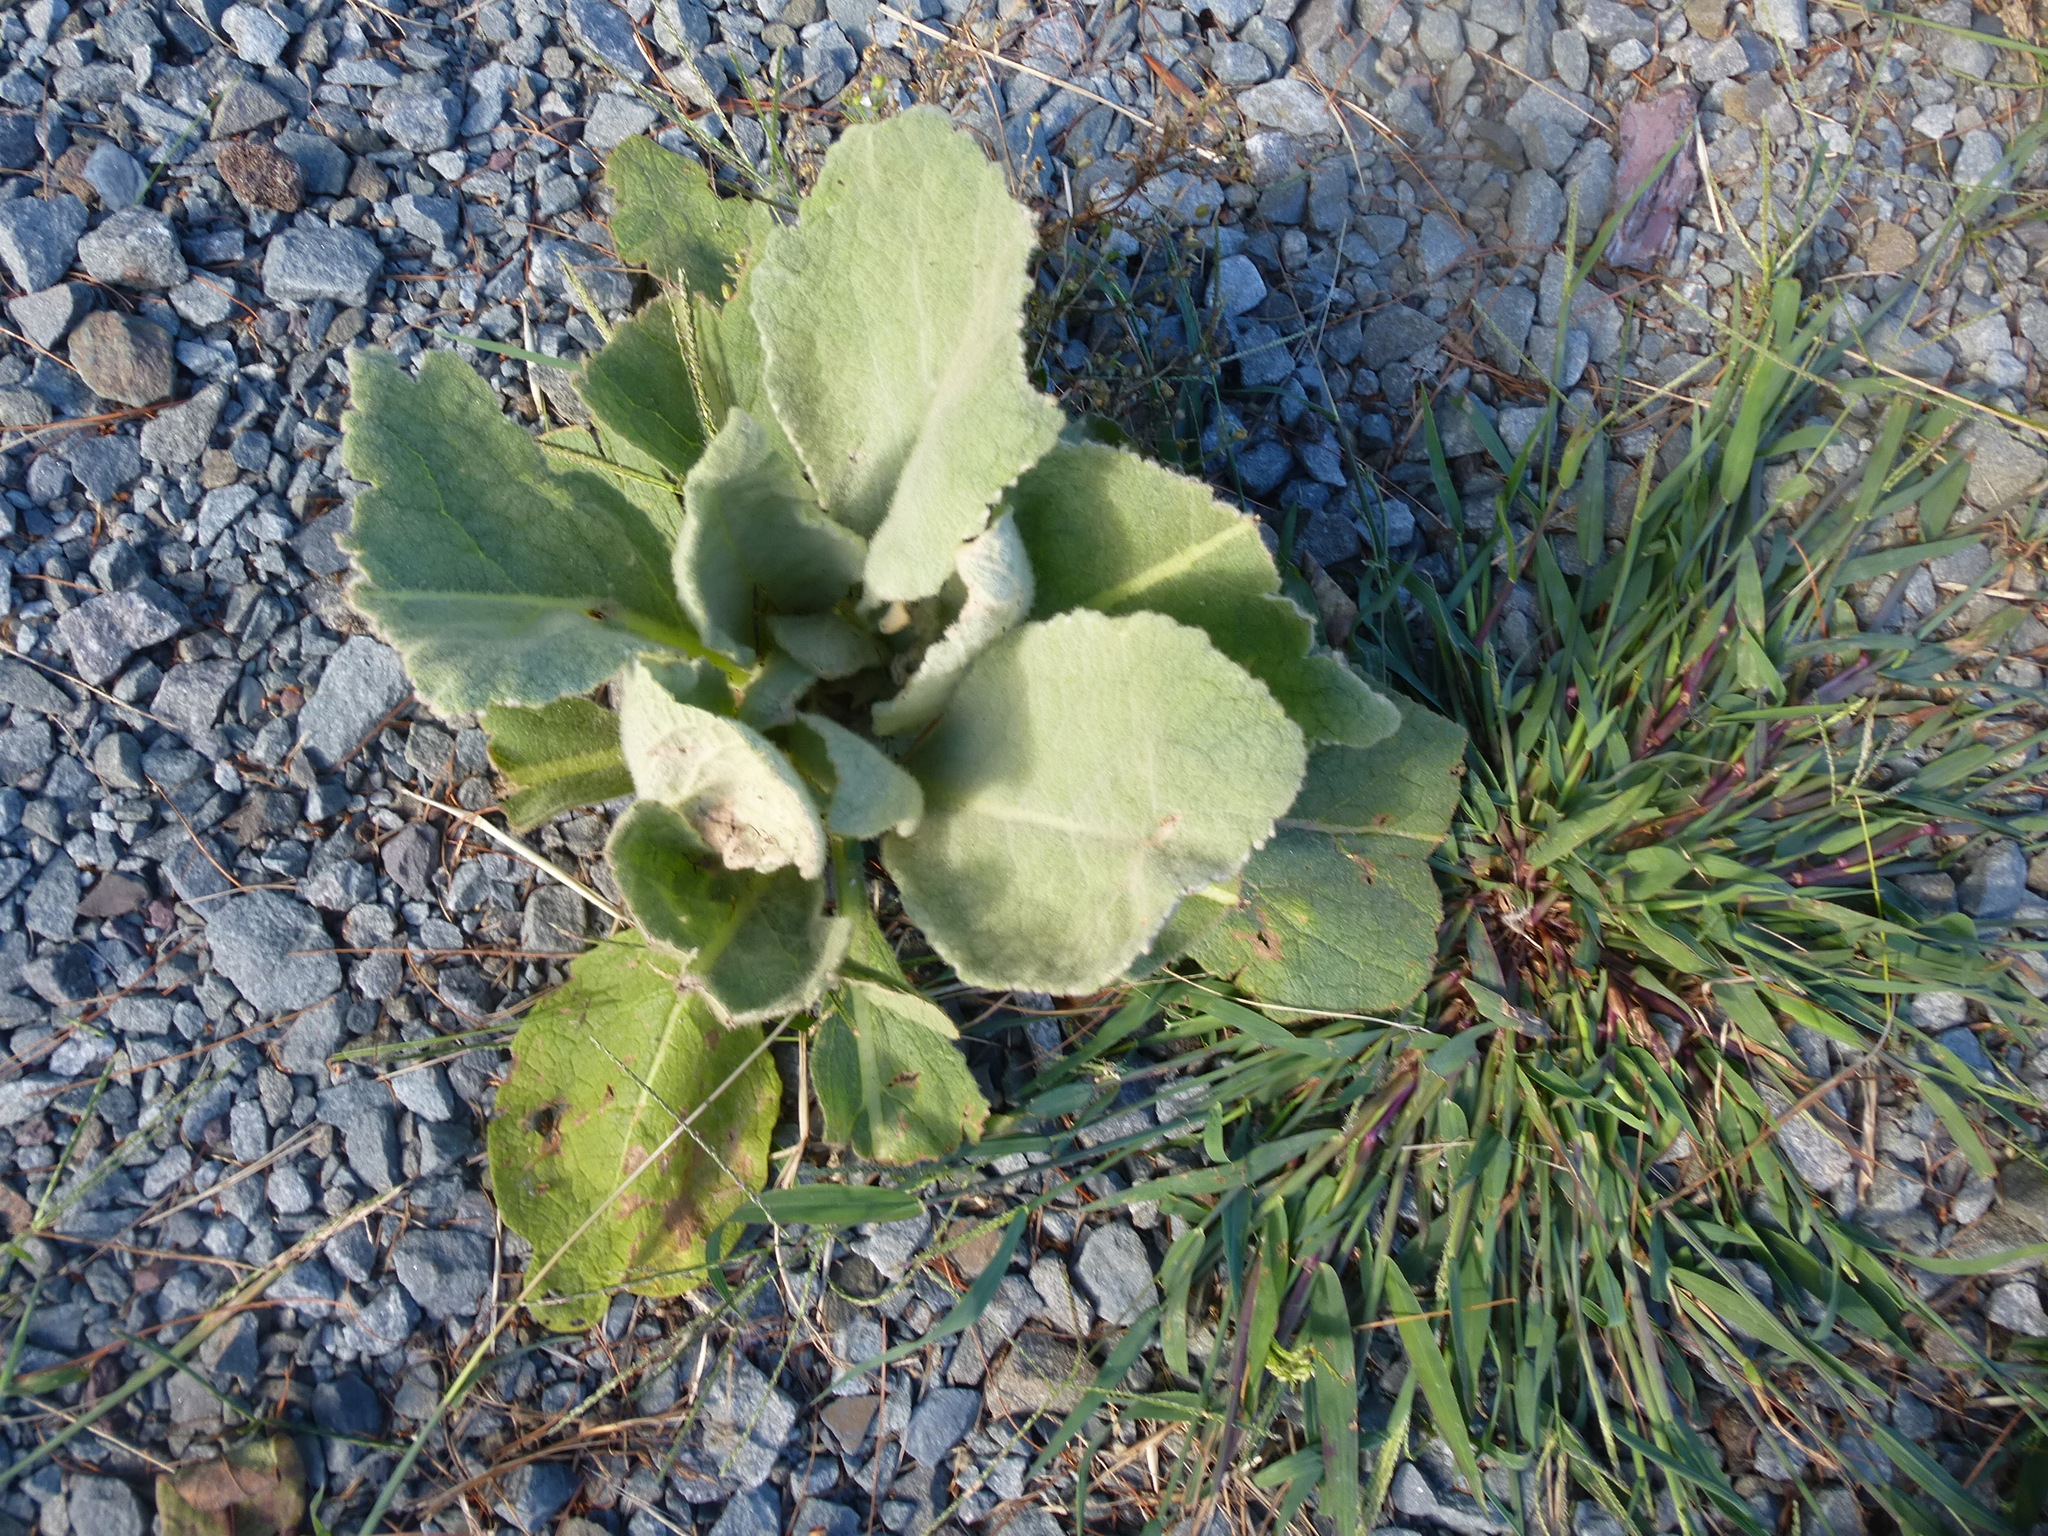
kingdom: Plantae
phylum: Tracheophyta
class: Magnoliopsida
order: Lamiales
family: Scrophulariaceae
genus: Verbascum
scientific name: Verbascum thapsus
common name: Common mullein
